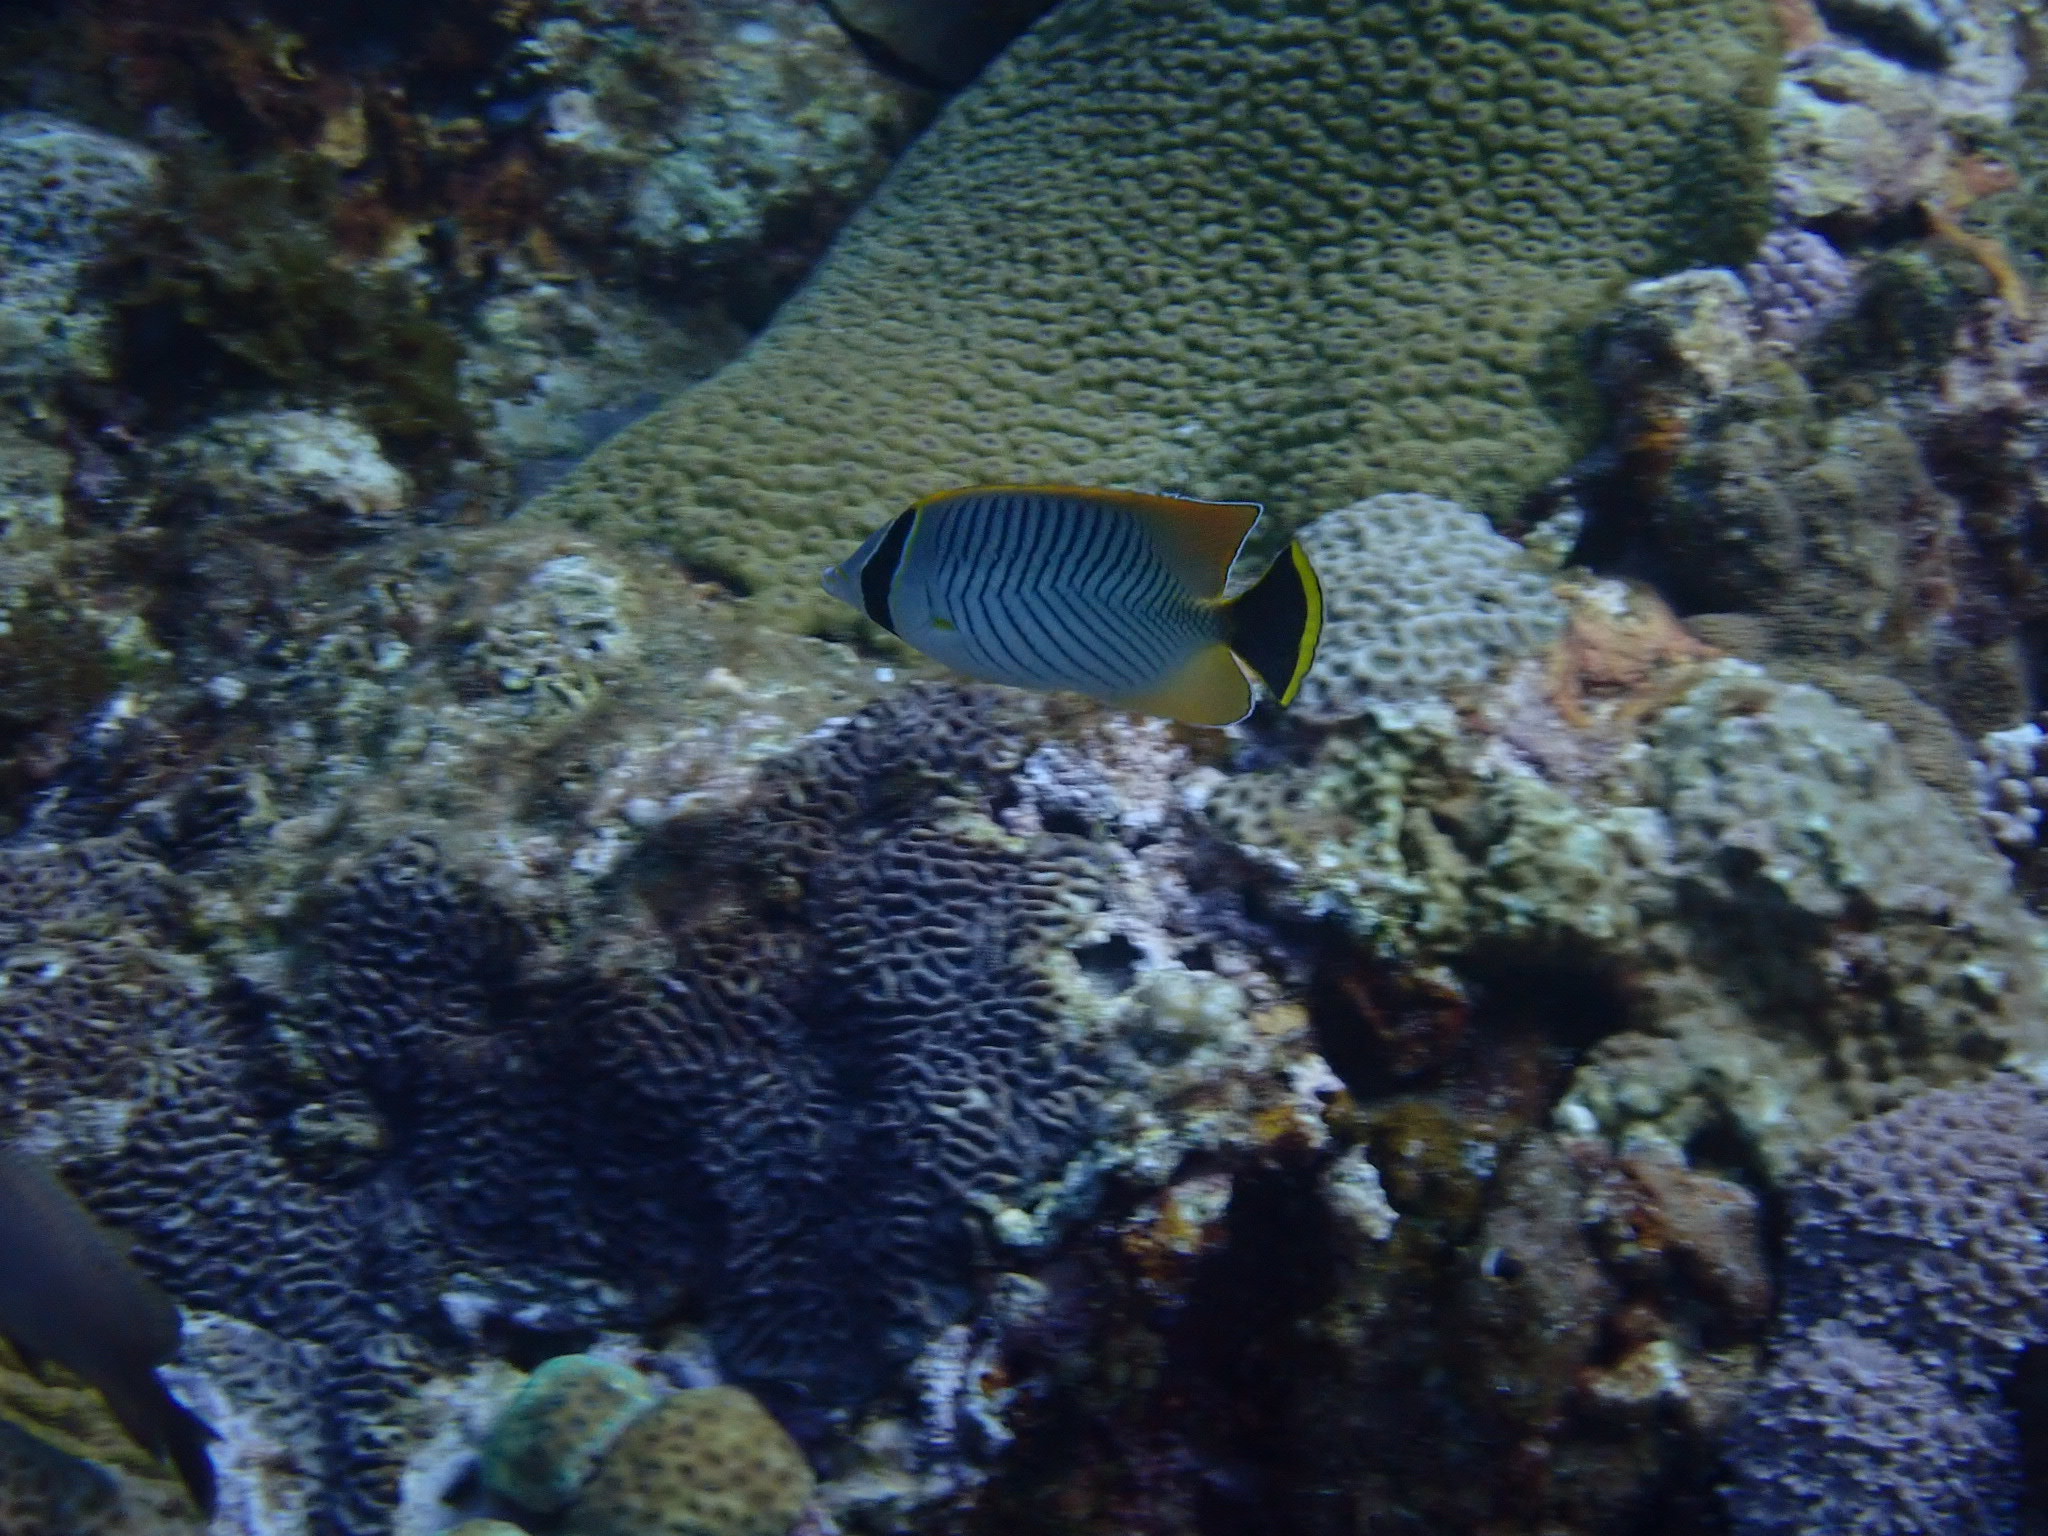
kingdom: Animalia
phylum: Chordata
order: Perciformes
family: Chaetodontidae
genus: Chaetodon
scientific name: Chaetodon trifascialis
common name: Chevroned butterflyfish
